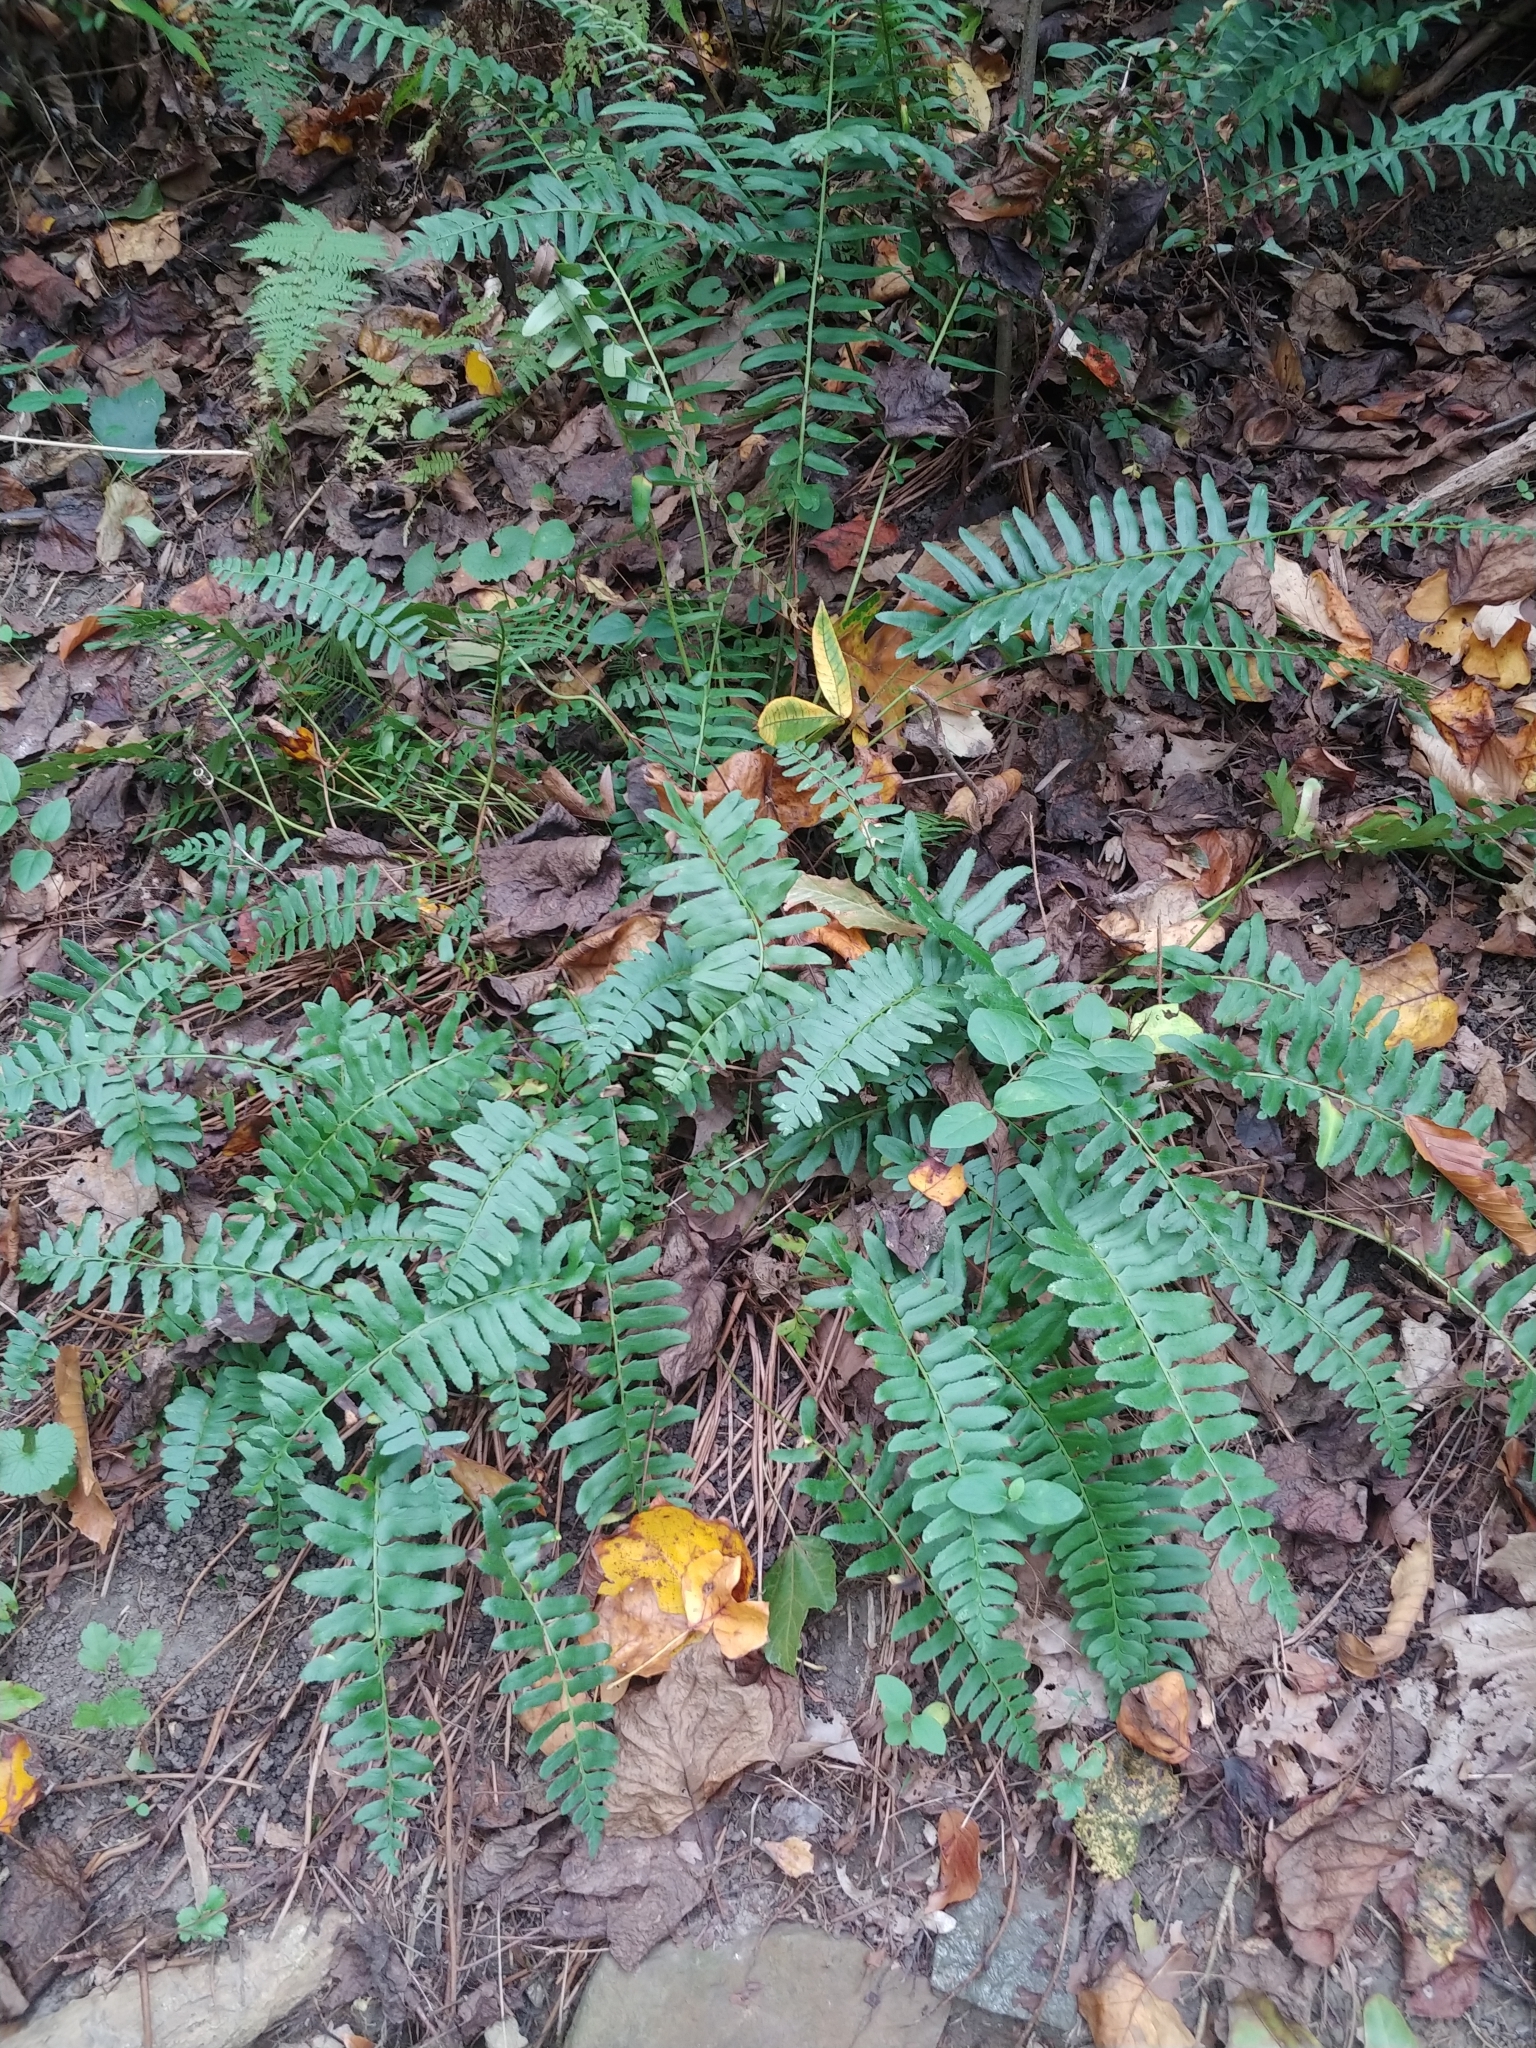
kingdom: Plantae
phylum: Tracheophyta
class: Polypodiopsida
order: Polypodiales
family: Dryopteridaceae
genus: Polystichum
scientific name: Polystichum acrostichoides
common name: Christmas fern
